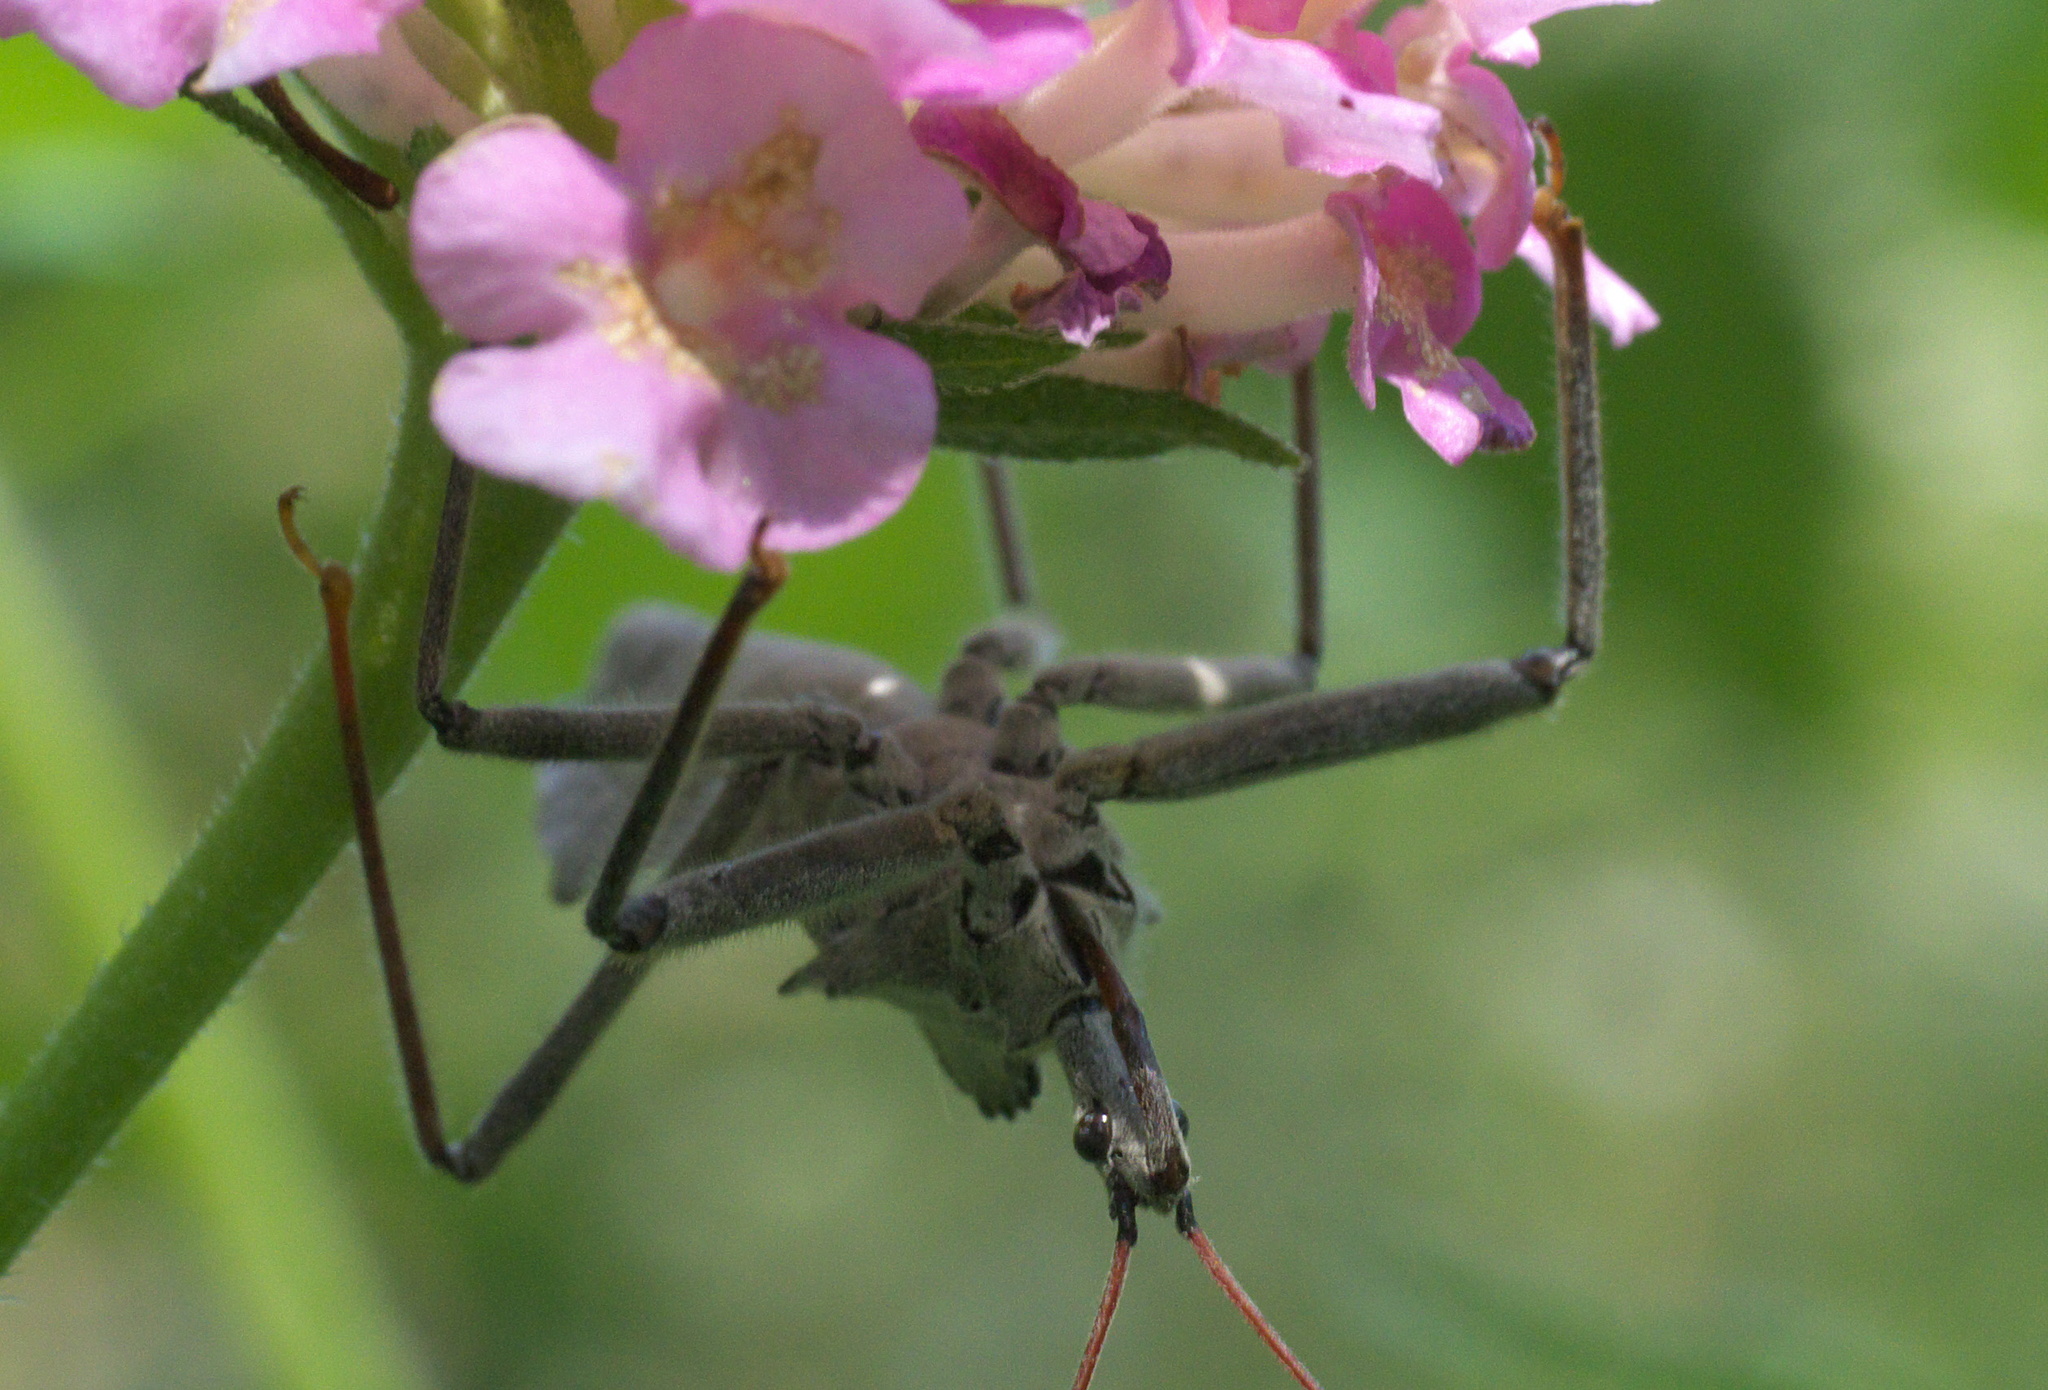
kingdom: Animalia
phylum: Arthropoda
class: Insecta
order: Hemiptera
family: Reduviidae
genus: Arilus
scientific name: Arilus cristatus
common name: North american wheel bug
